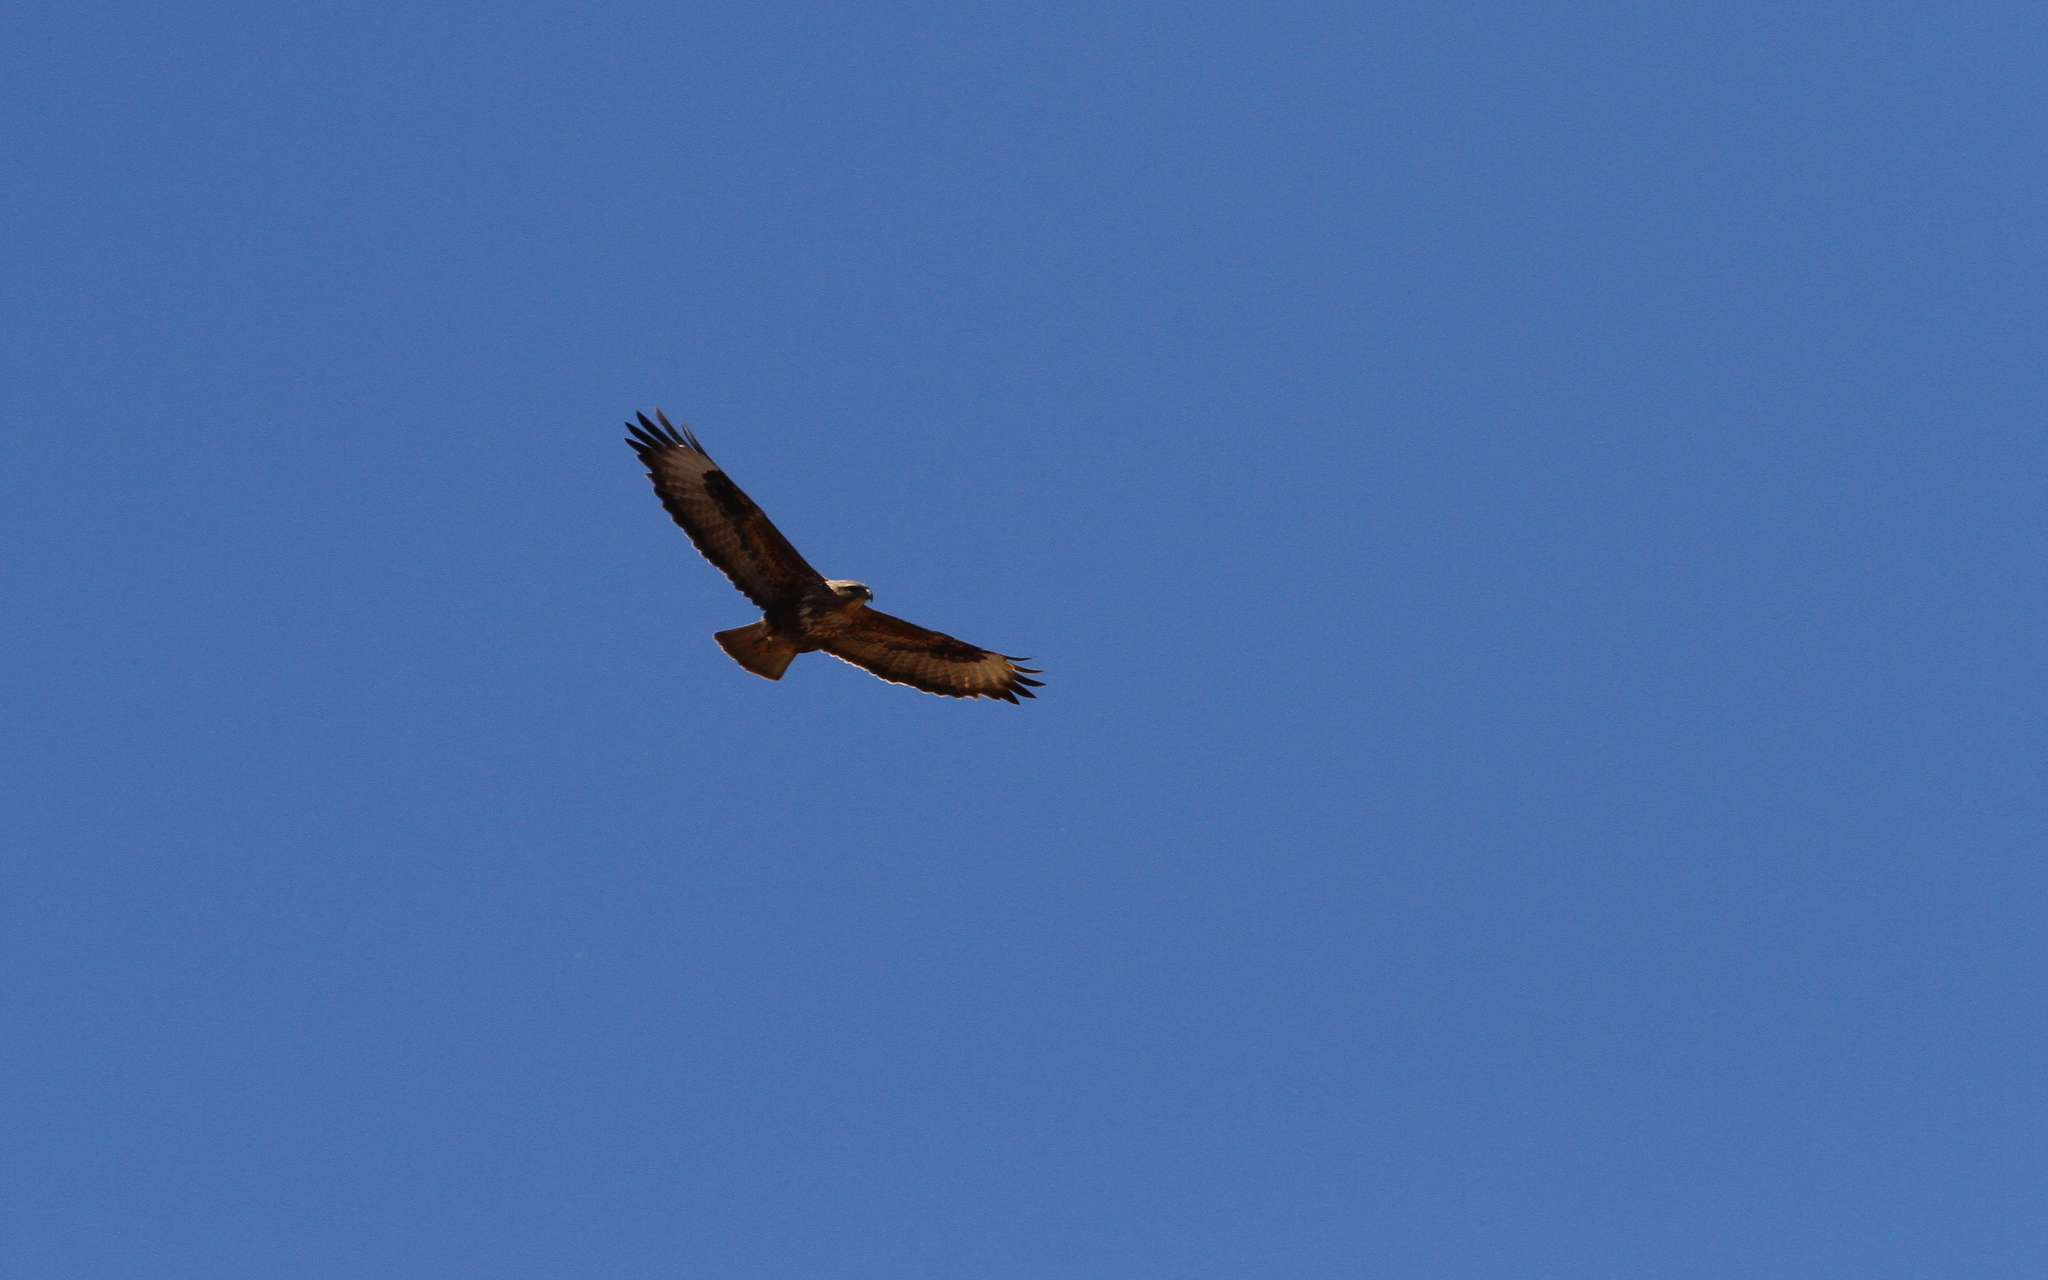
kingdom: Animalia
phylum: Chordata
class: Aves
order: Accipitriformes
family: Accipitridae
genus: Buteo
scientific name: Buteo buteo
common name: Common buzzard
